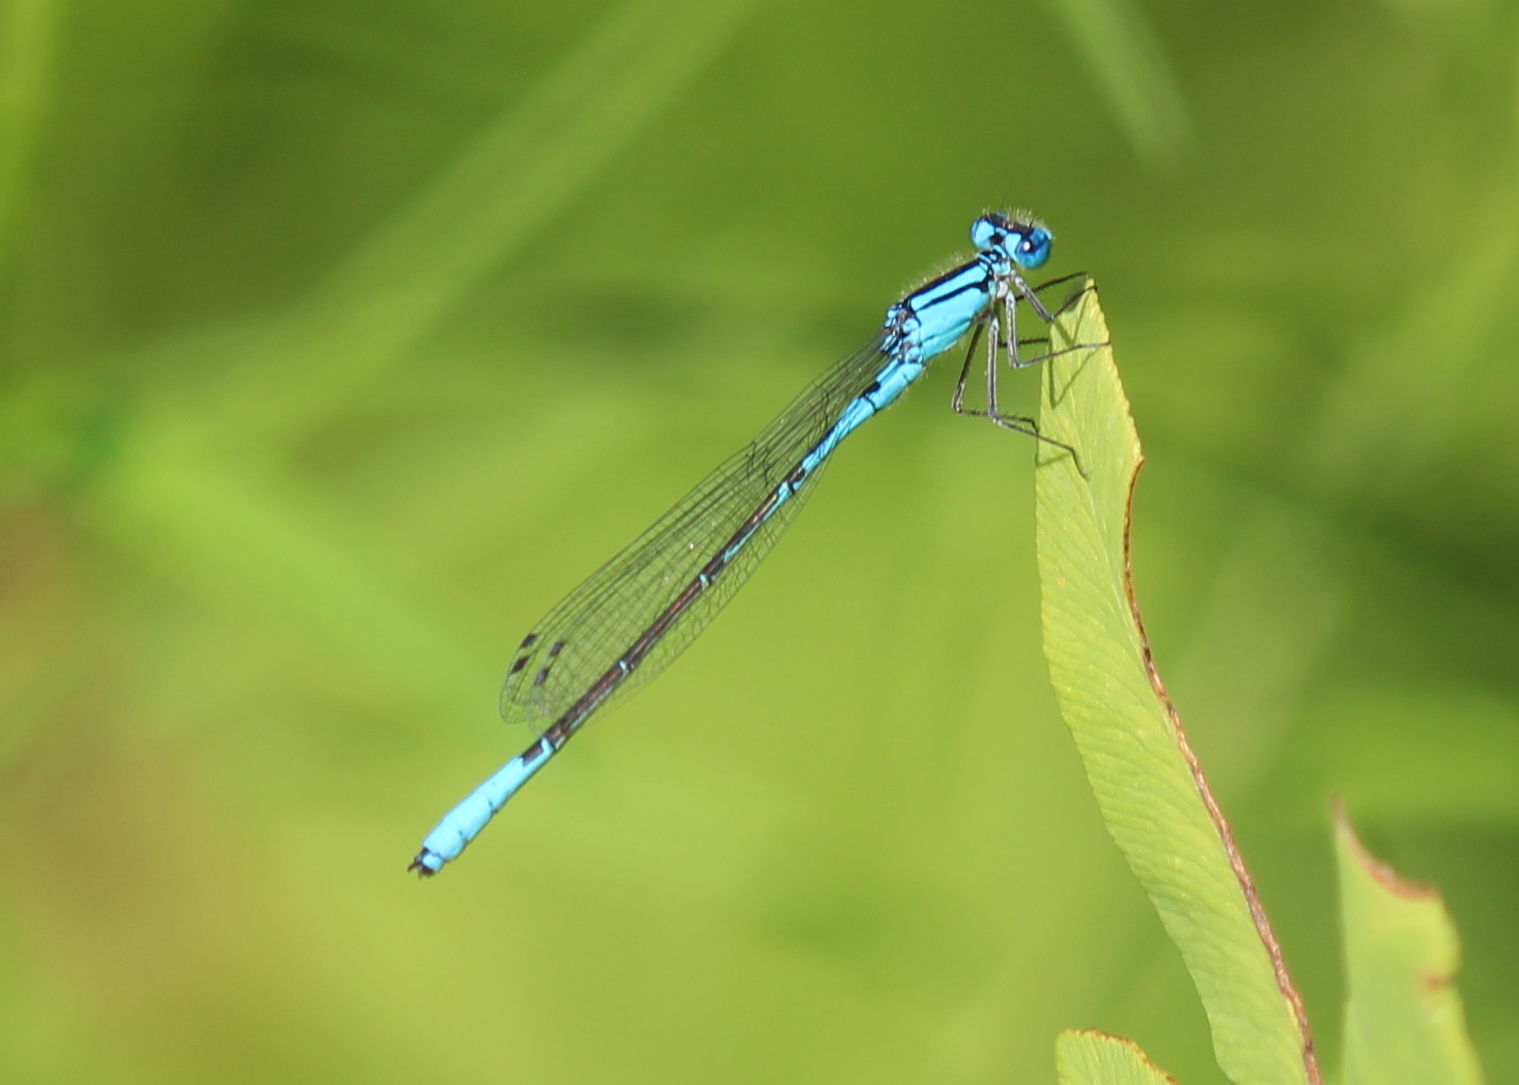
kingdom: Animalia
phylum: Arthropoda
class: Insecta
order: Odonata
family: Coenagrionidae
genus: Enallagma
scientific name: Enallagma aspersum
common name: Azure bluet
